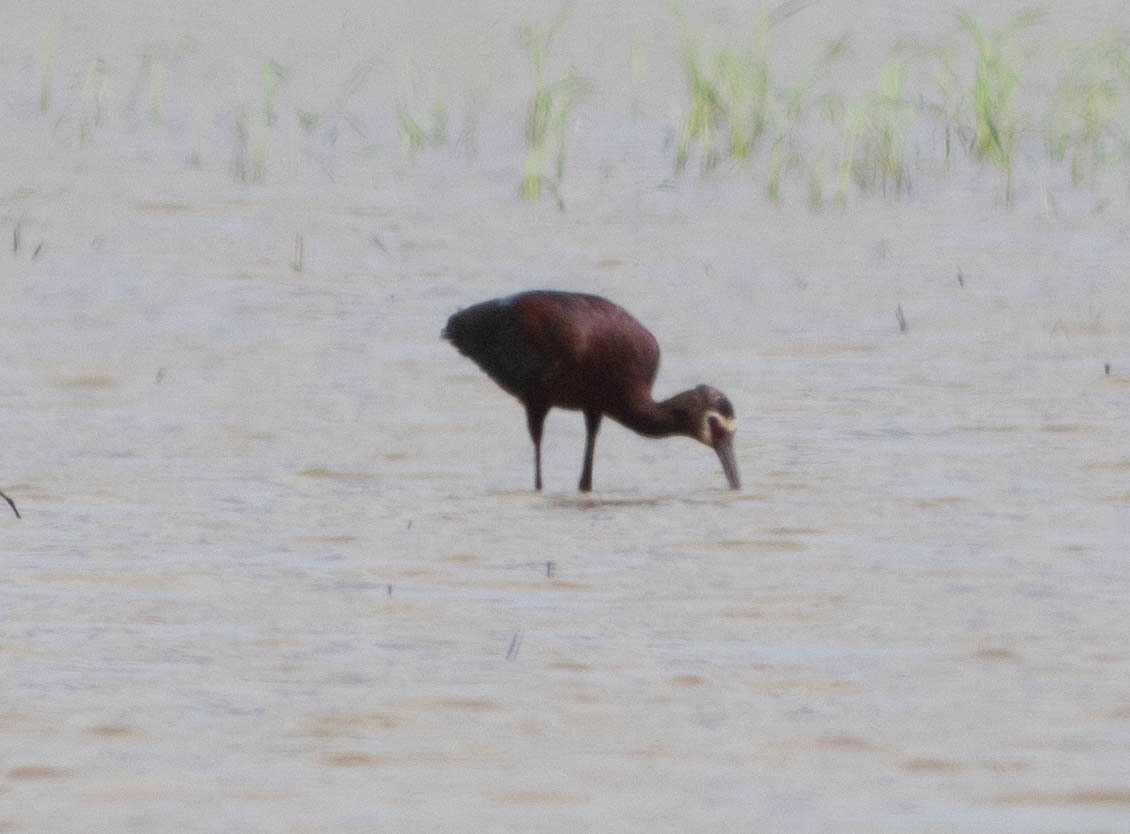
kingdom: Animalia
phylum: Chordata
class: Aves
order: Pelecaniformes
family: Threskiornithidae
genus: Plegadis
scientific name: Plegadis chihi
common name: White-faced ibis
